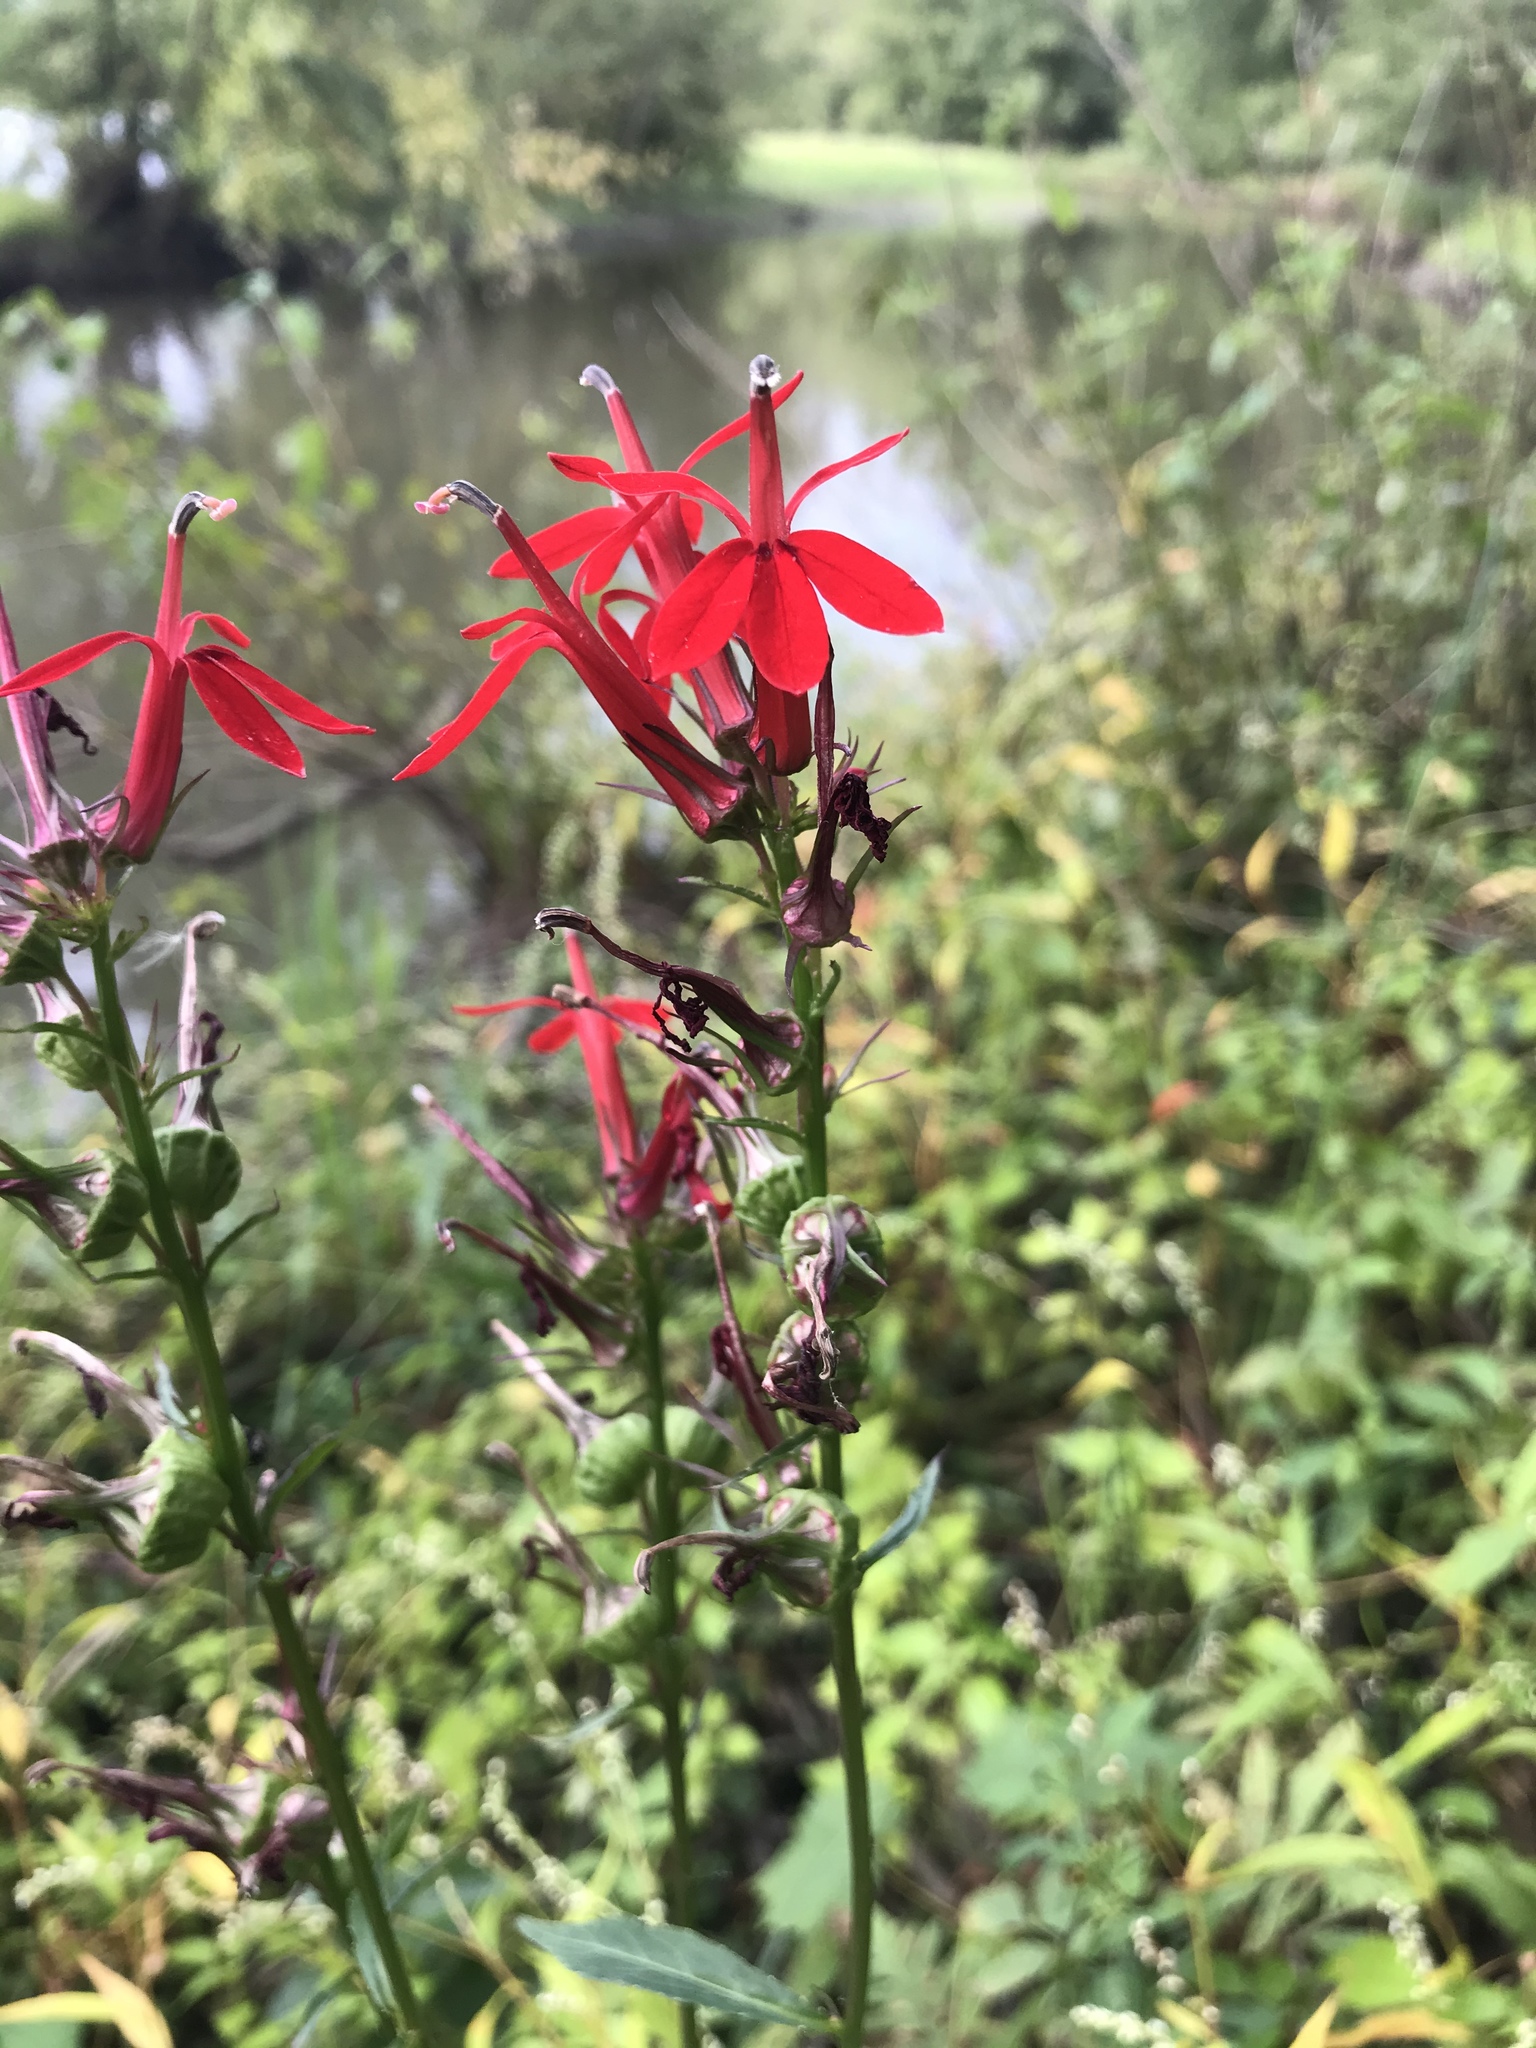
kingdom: Plantae
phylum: Tracheophyta
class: Magnoliopsida
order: Asterales
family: Campanulaceae
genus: Lobelia
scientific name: Lobelia cardinalis
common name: Cardinal flower
